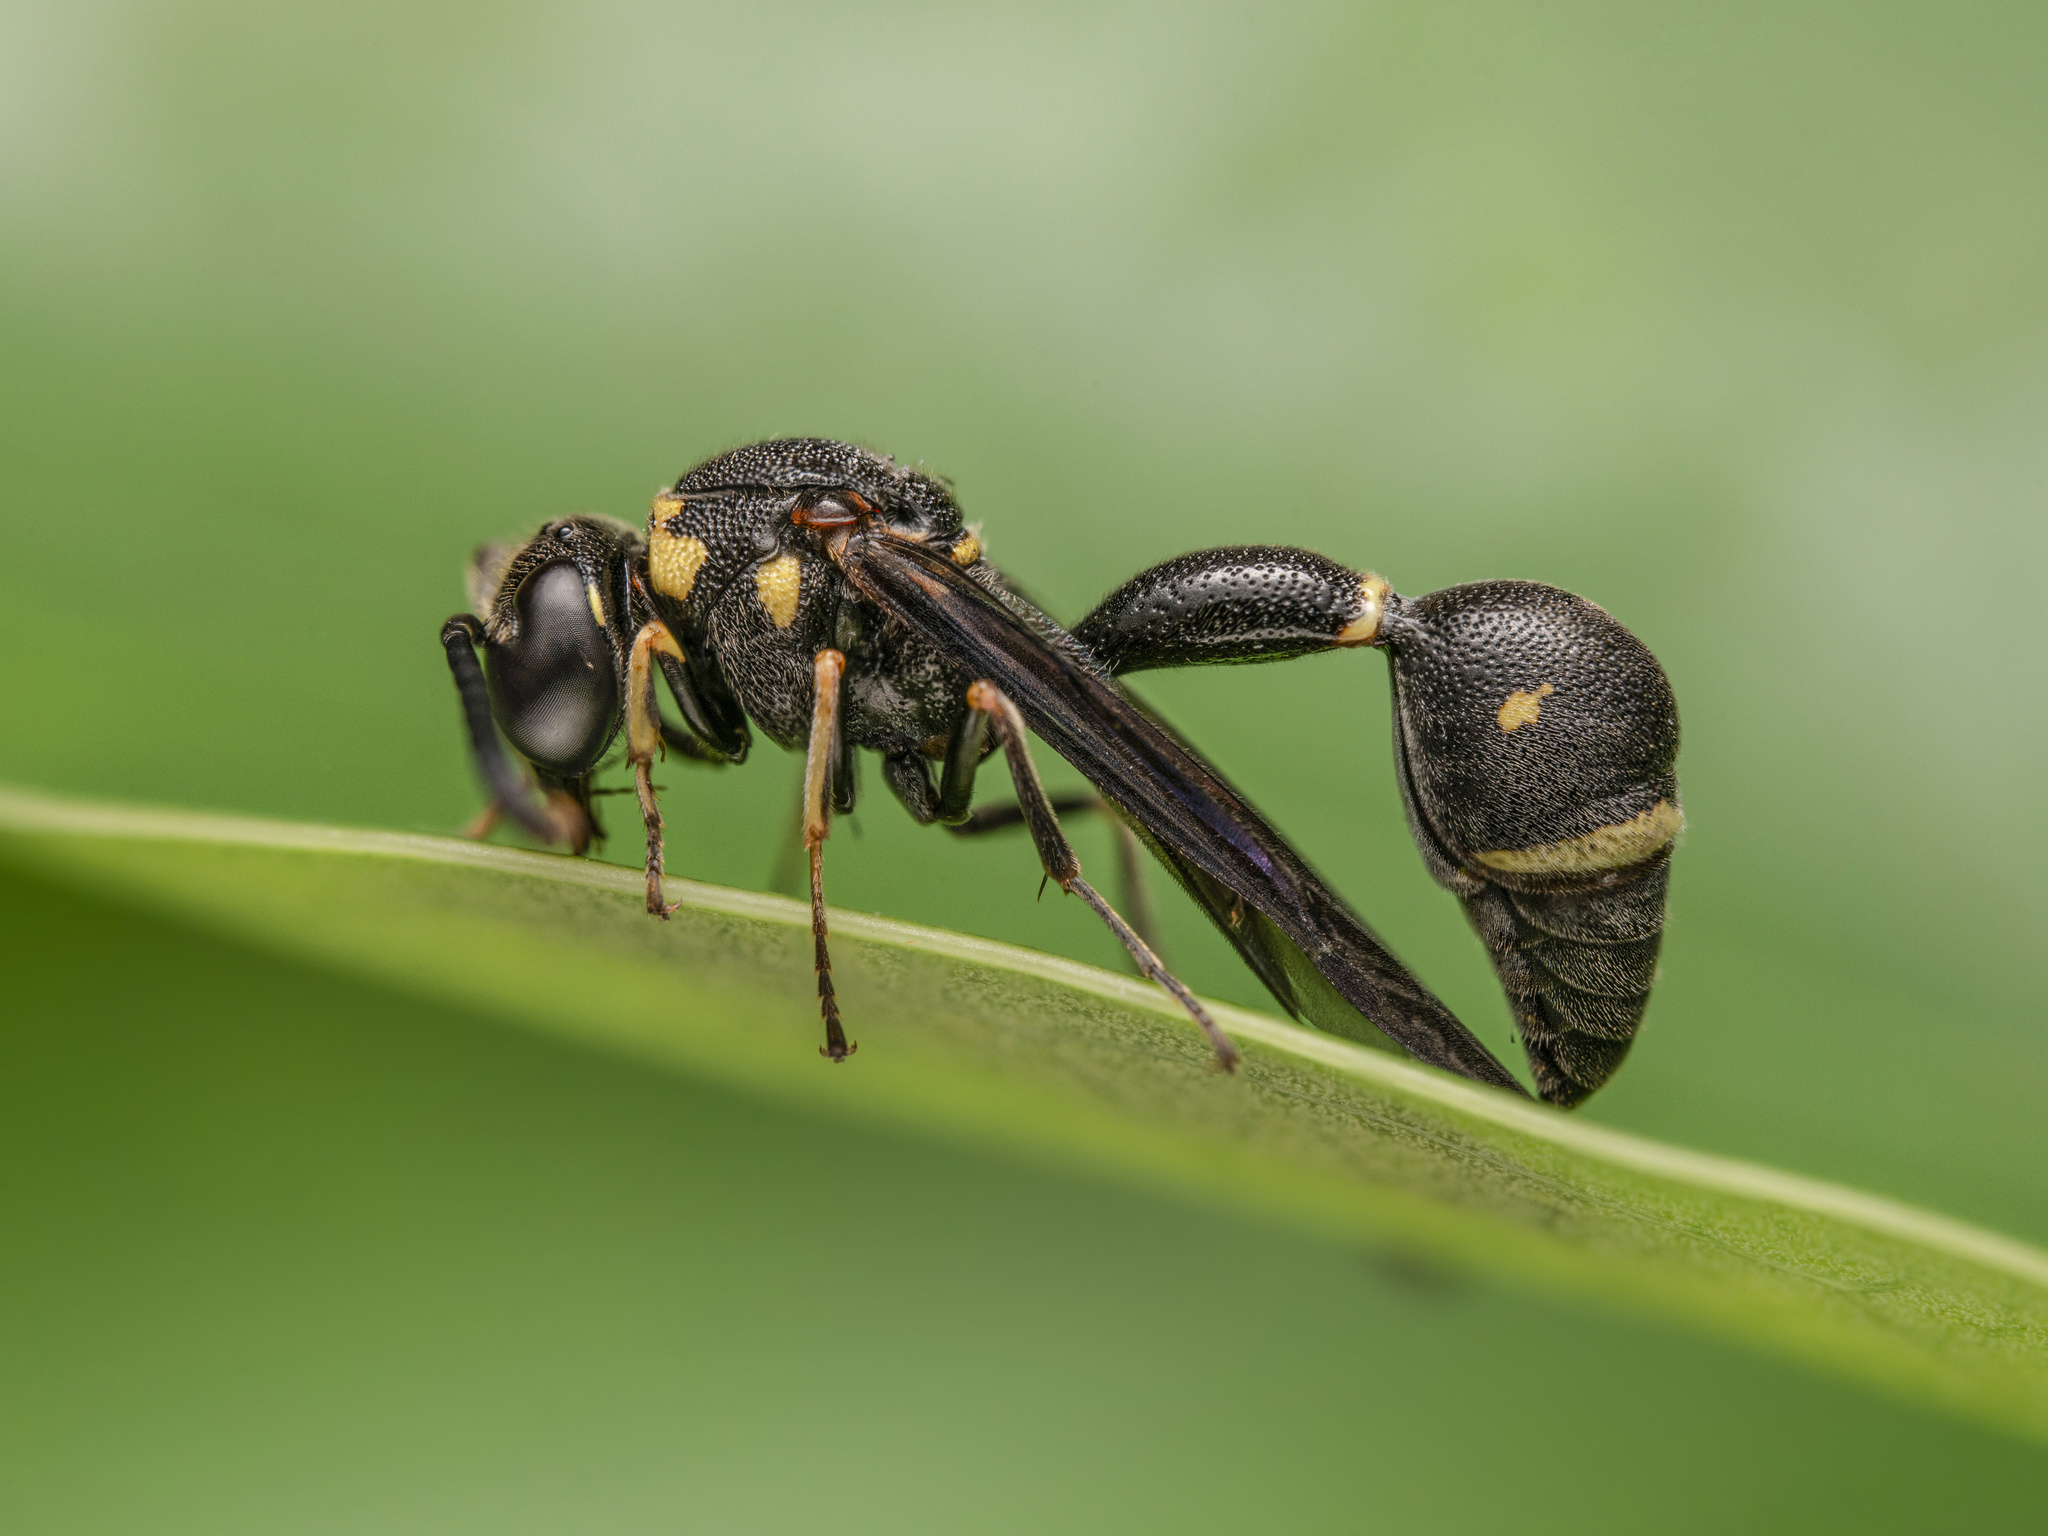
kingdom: Animalia
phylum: Arthropoda
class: Insecta
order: Hymenoptera
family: Vespidae
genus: Eumenes
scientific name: Eumenes punctatus
